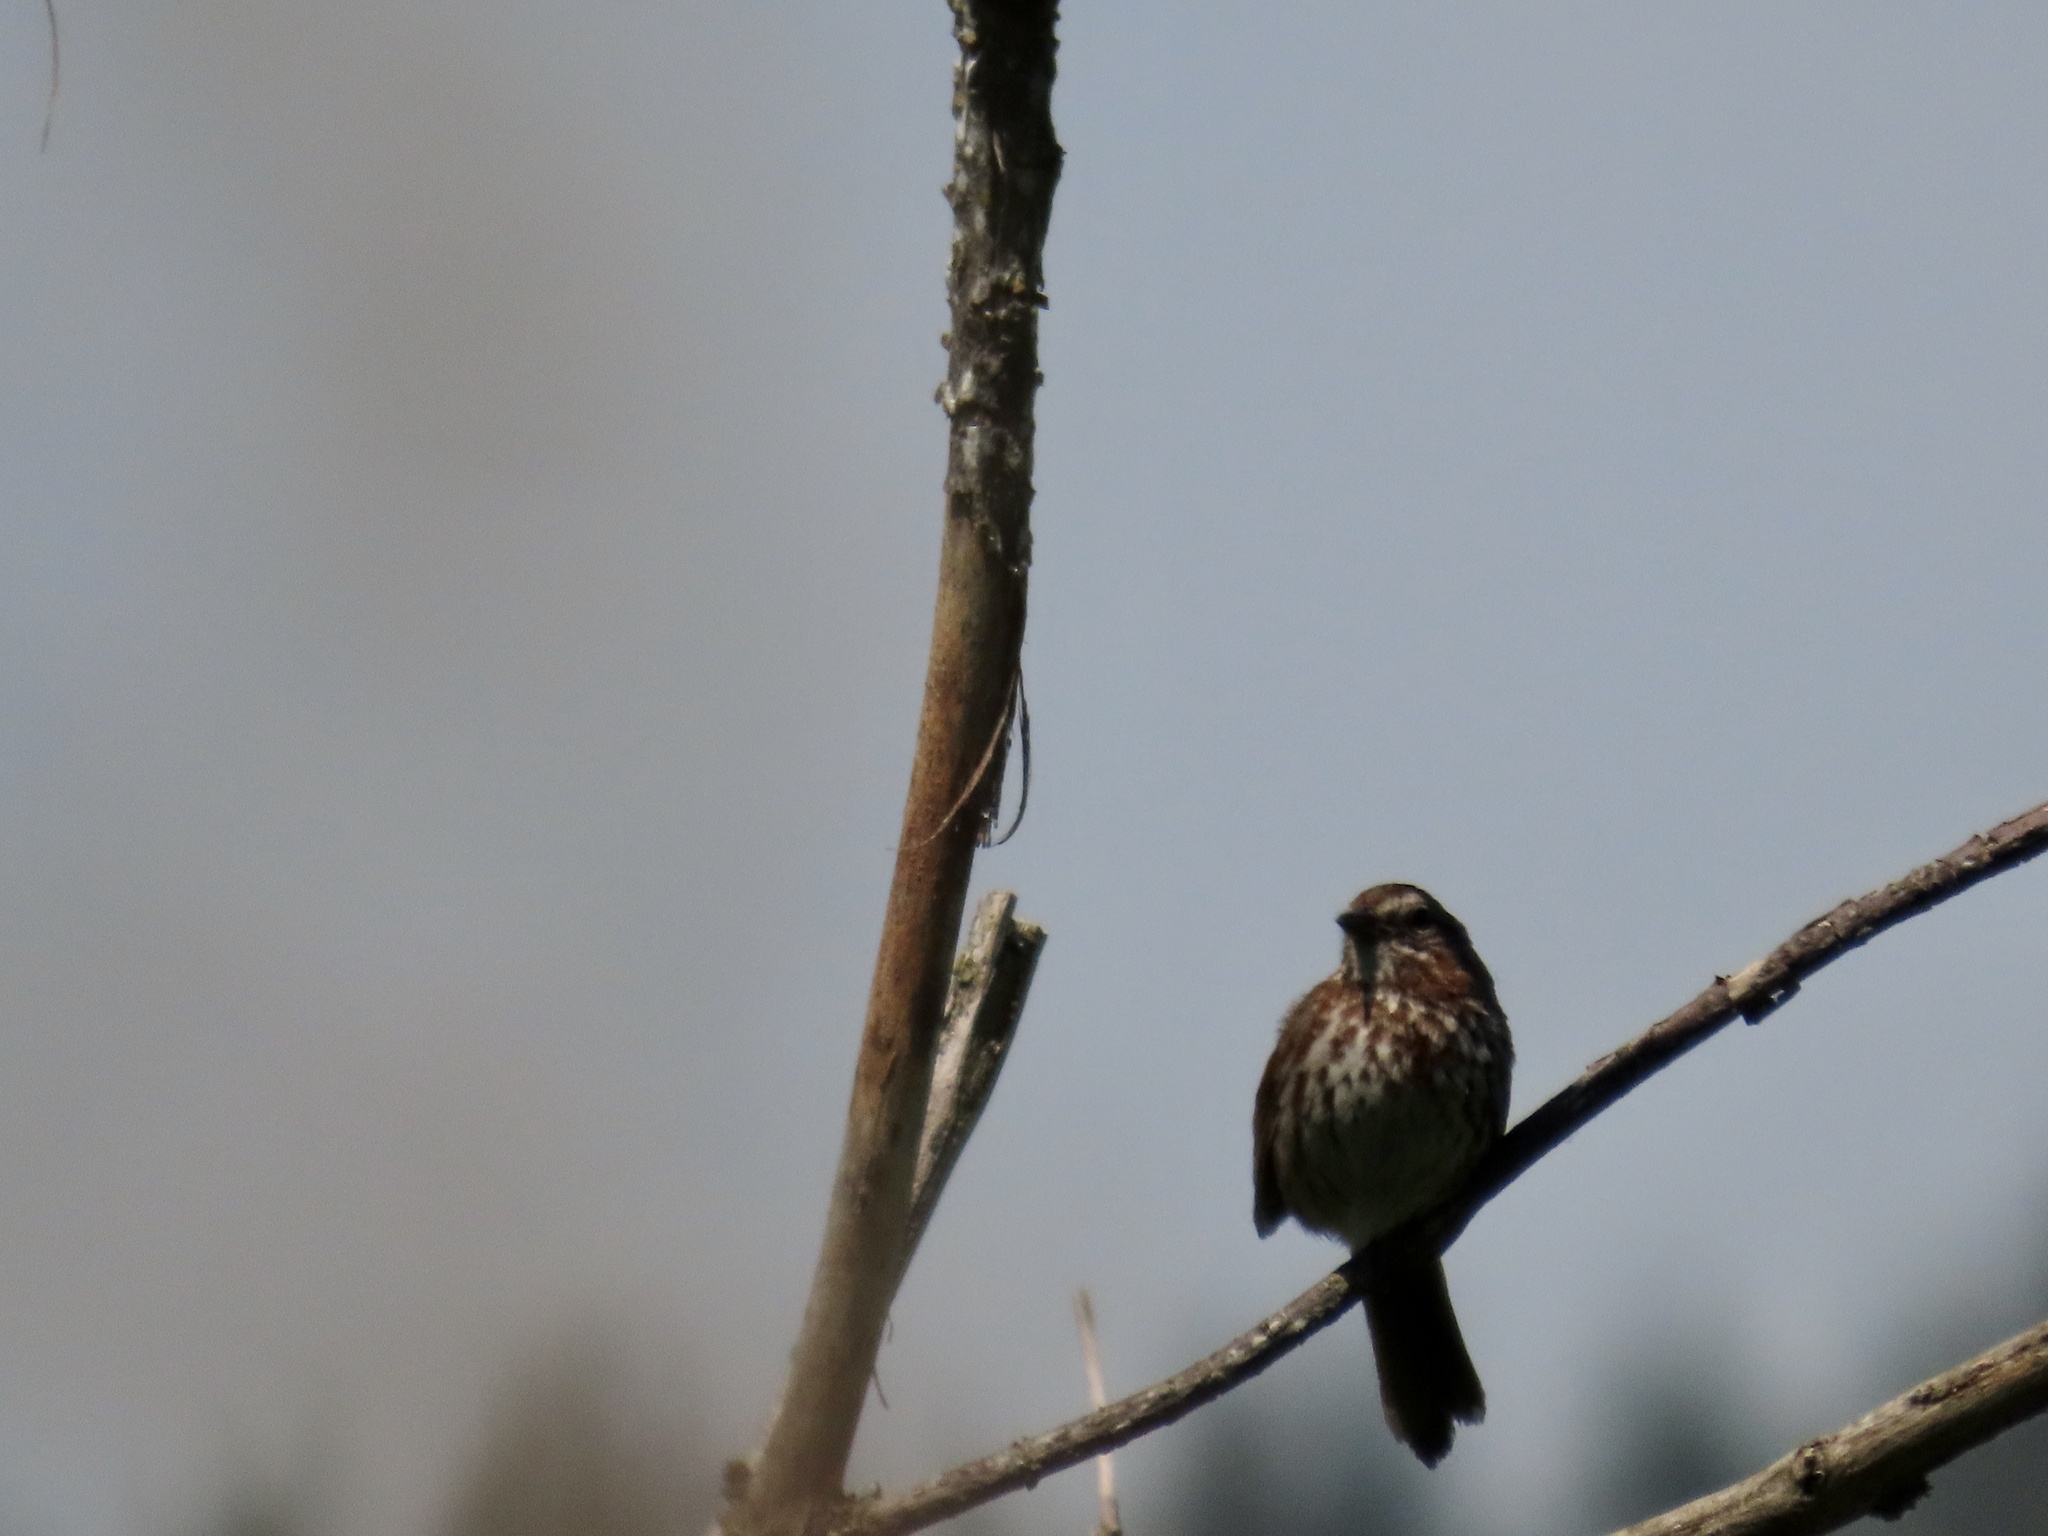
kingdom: Animalia
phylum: Chordata
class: Aves
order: Passeriformes
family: Passerellidae
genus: Melospiza
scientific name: Melospiza melodia
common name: Song sparrow
